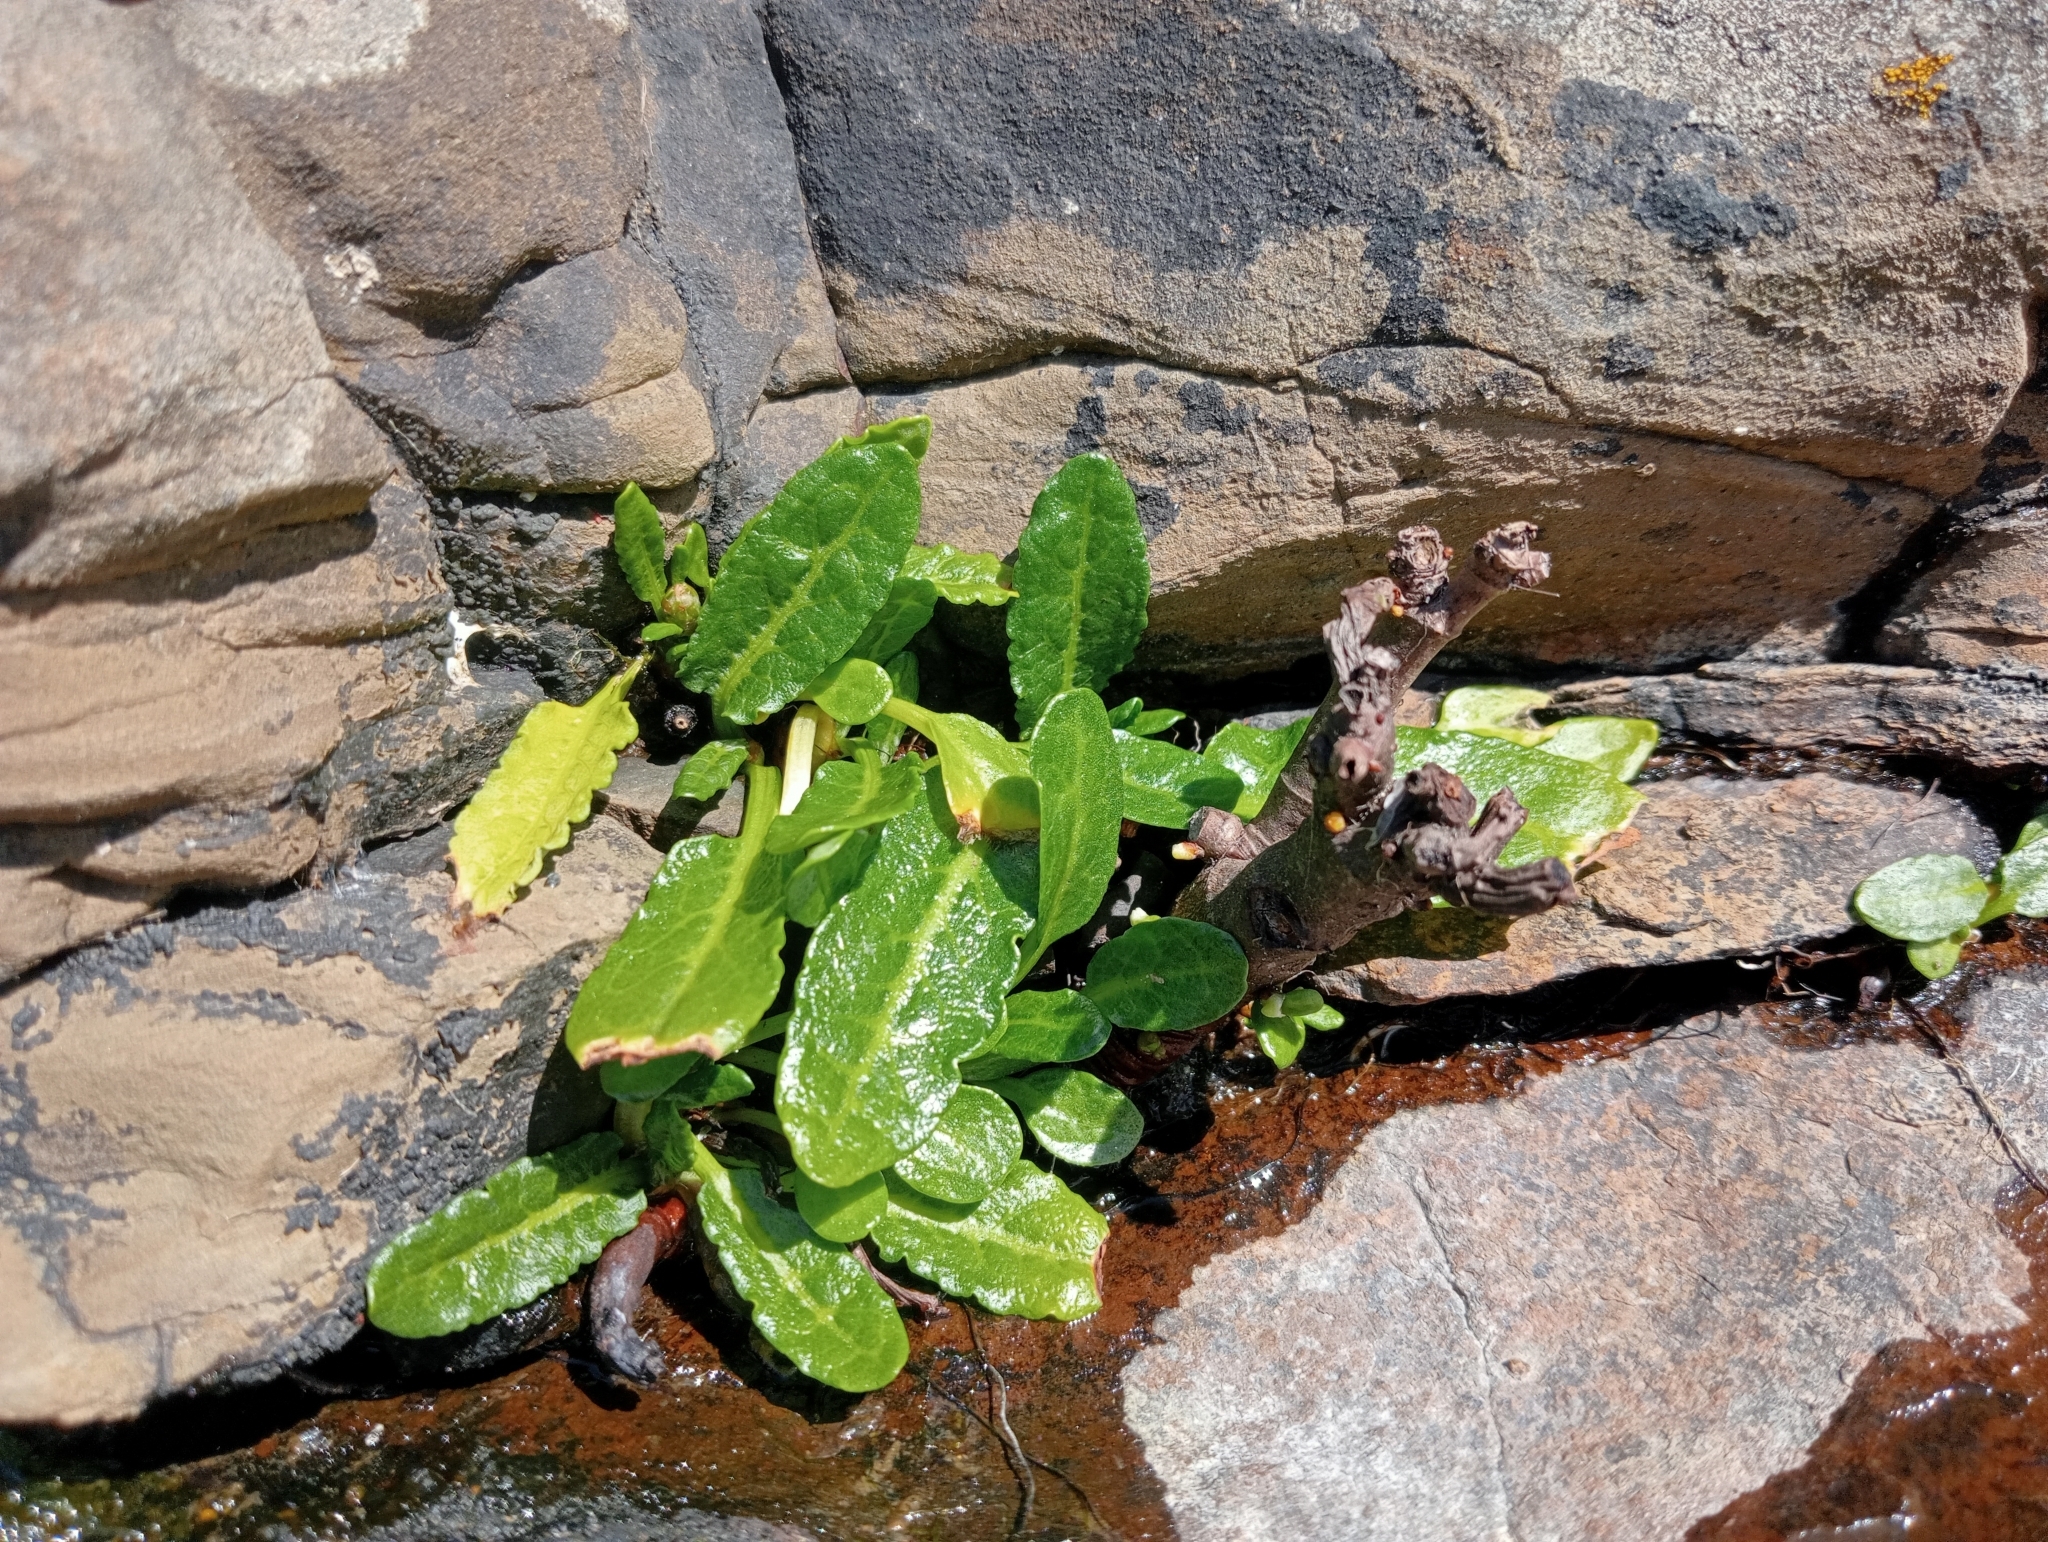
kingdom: Plantae
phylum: Tracheophyta
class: Magnoliopsida
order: Caryophyllales
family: Polygonaceae
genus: Rumex
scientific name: Rumex neglectus
